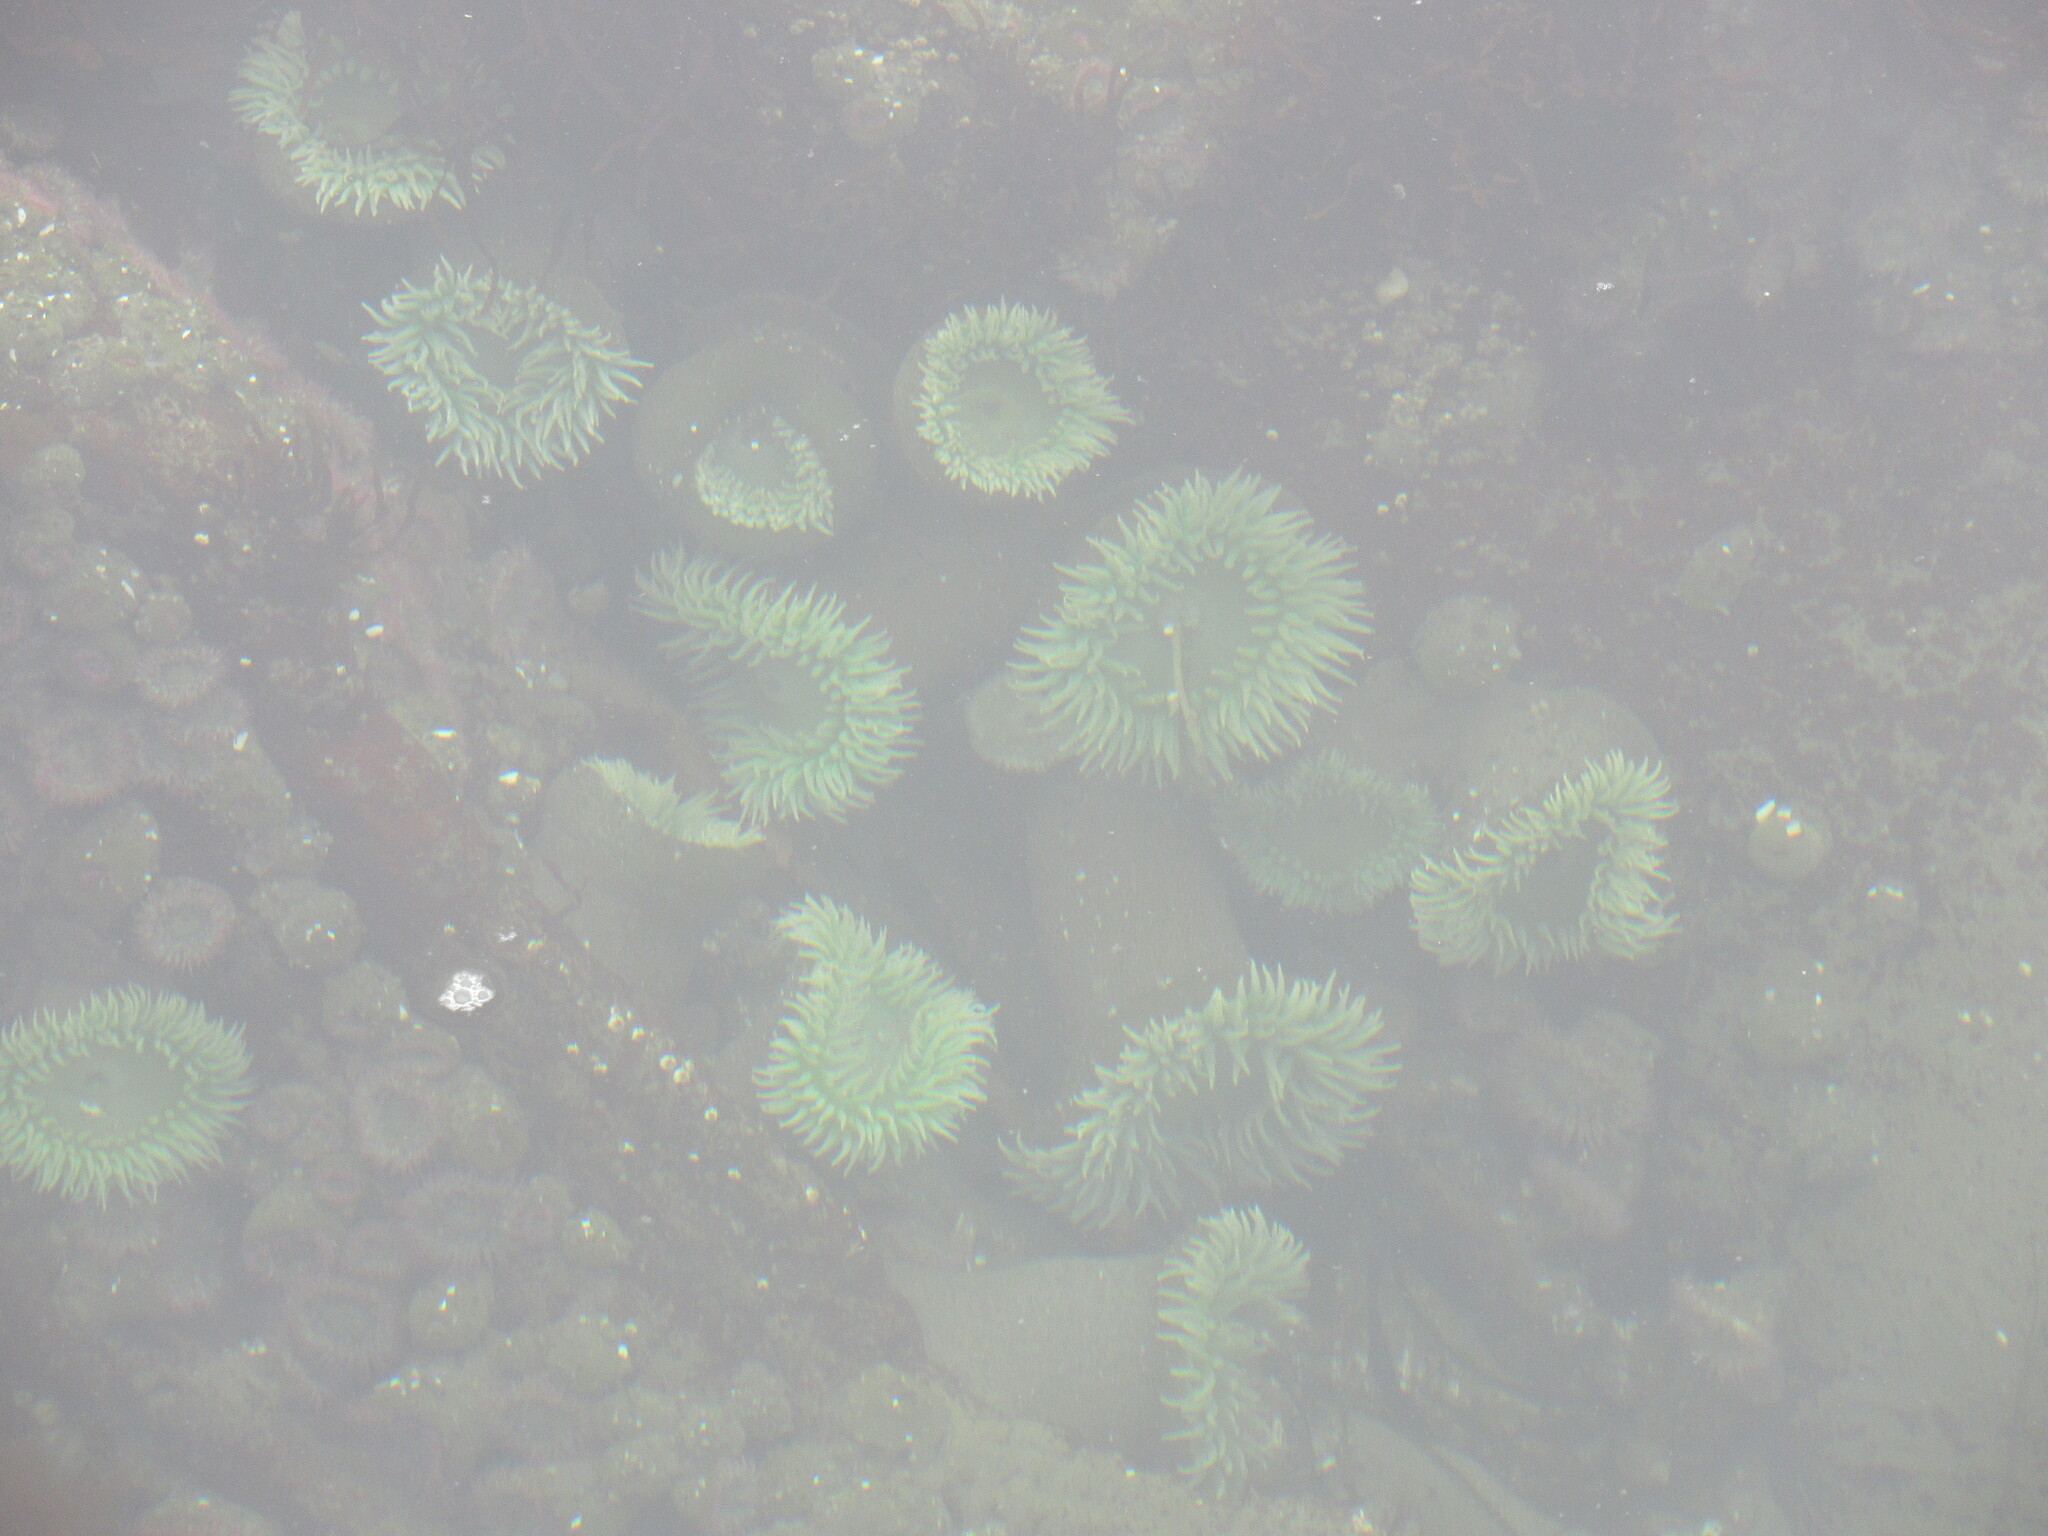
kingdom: Animalia
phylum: Cnidaria
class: Anthozoa
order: Actiniaria
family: Actiniidae
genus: Anthopleura
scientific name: Anthopleura xanthogrammica
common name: Giant green anemone
